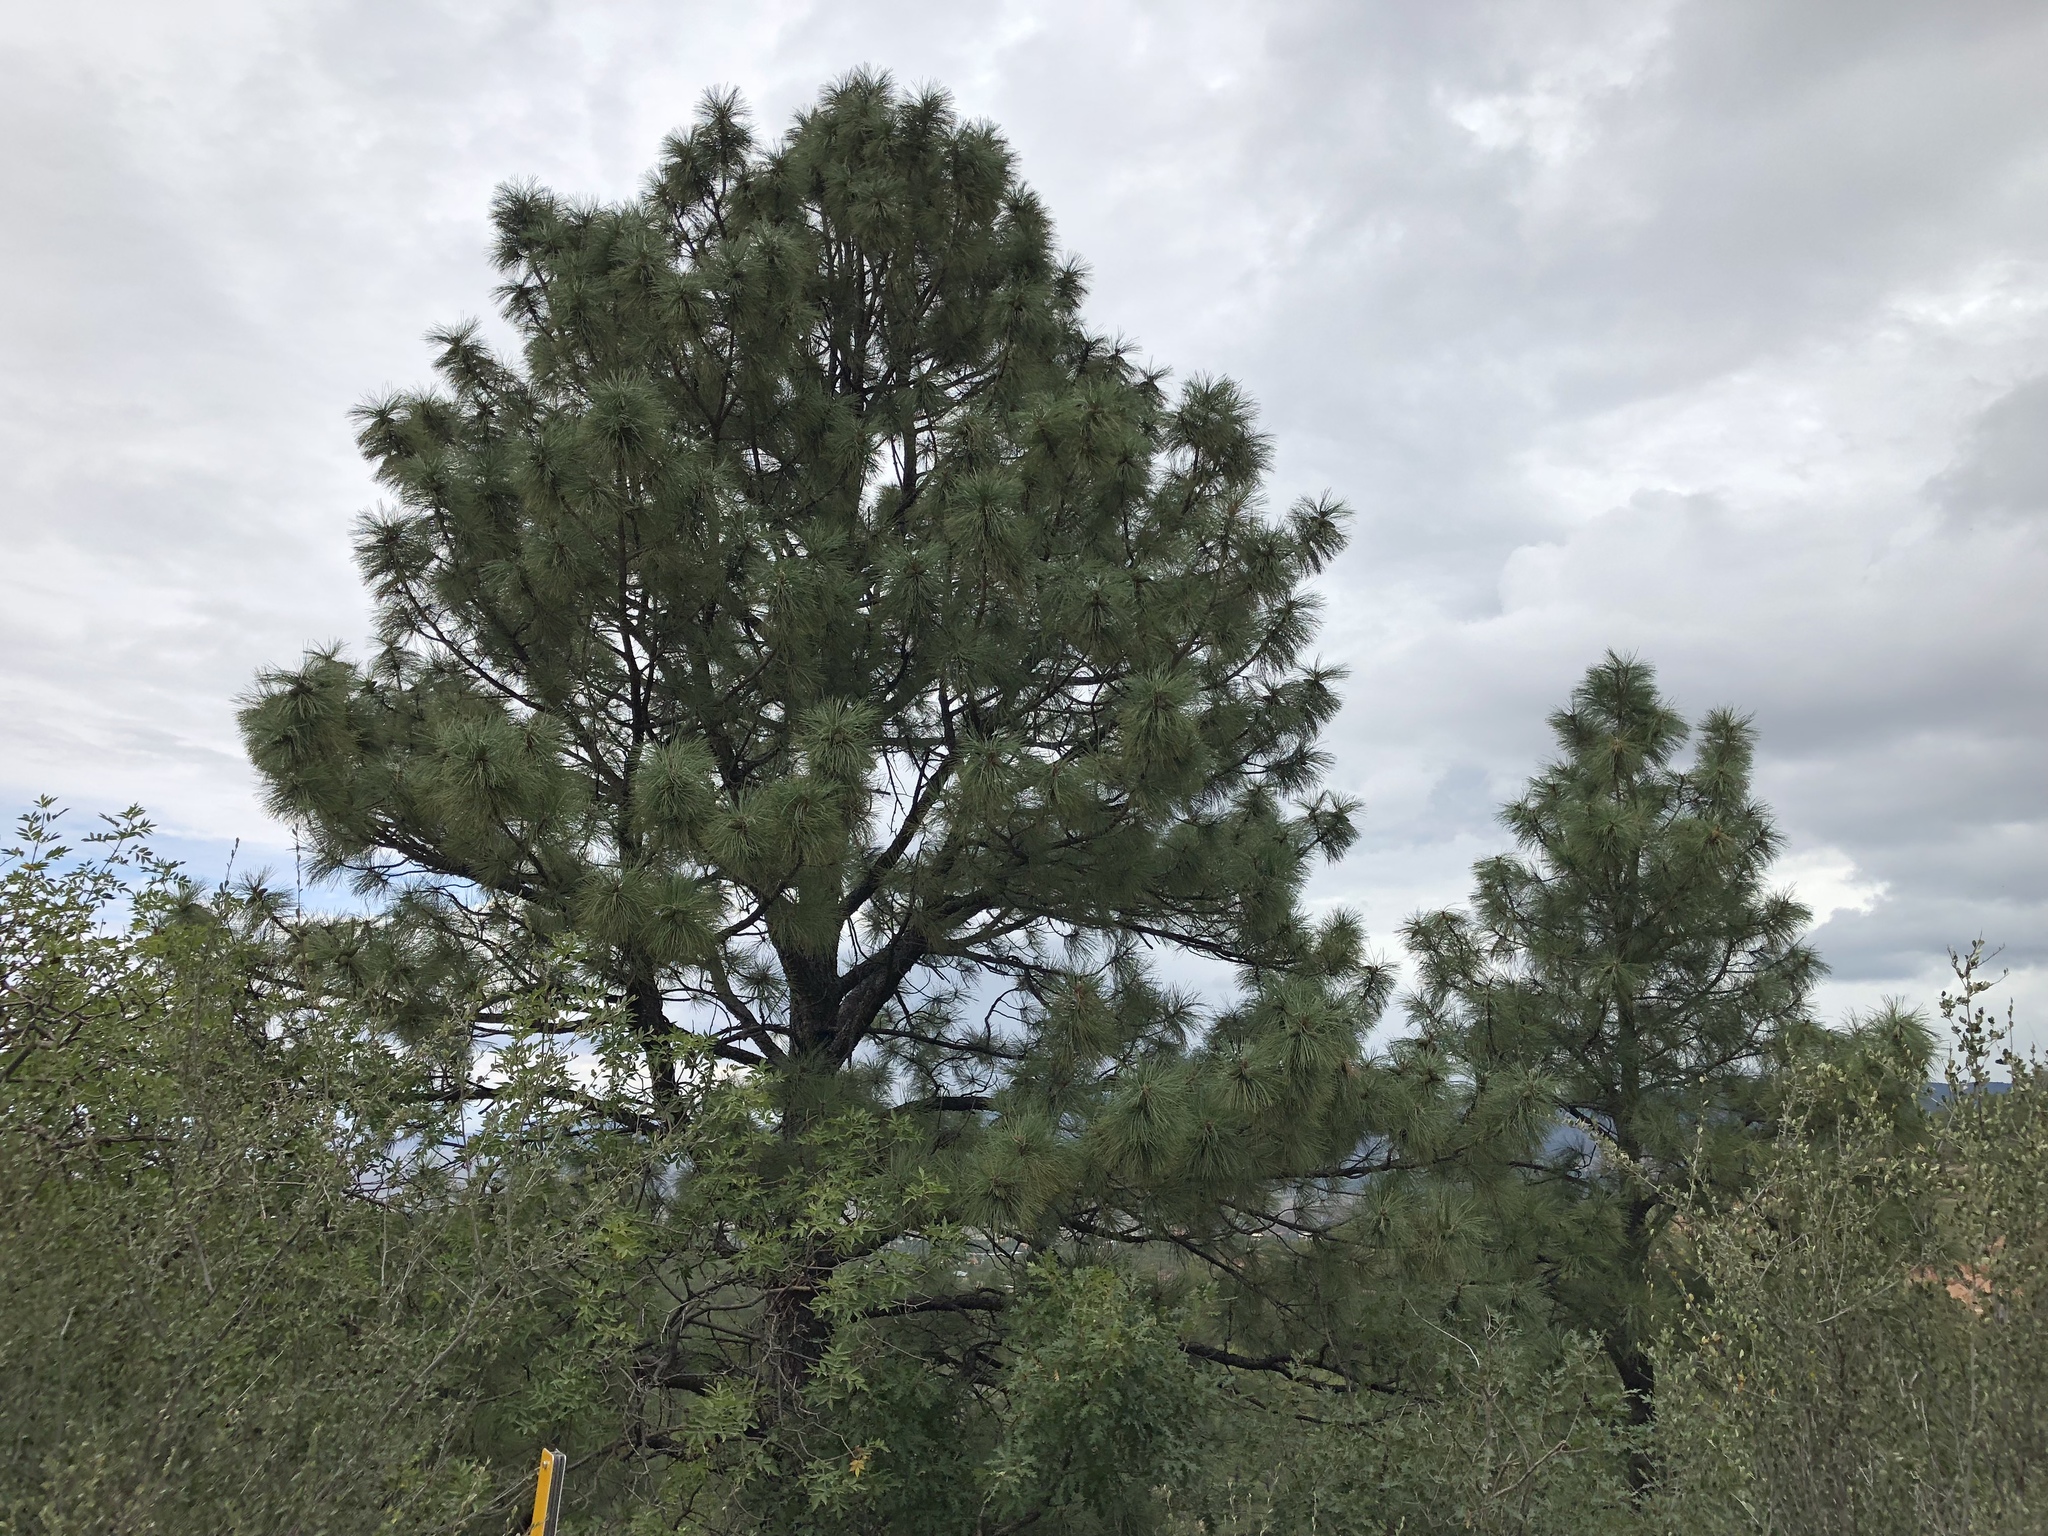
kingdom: Plantae
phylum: Tracheophyta
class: Pinopsida
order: Pinales
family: Pinaceae
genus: Pinus
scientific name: Pinus ponderosa
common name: Western yellow-pine
